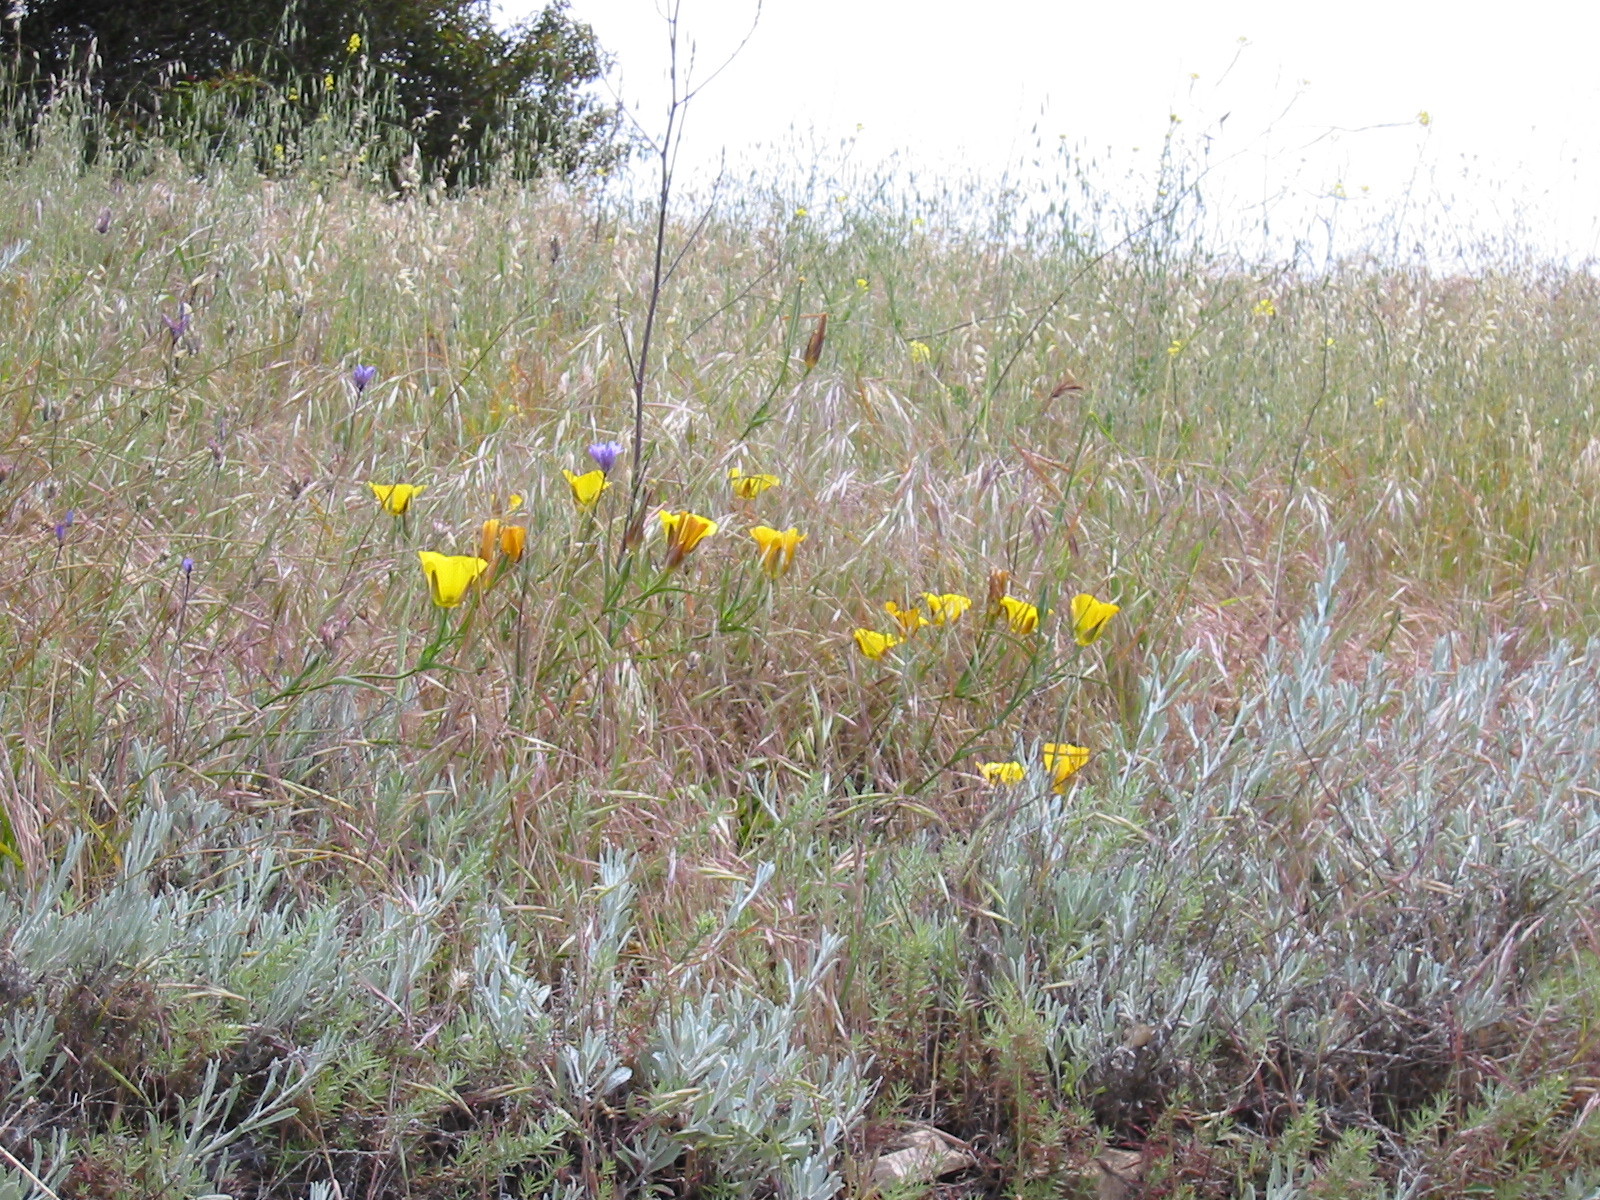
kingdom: Plantae
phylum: Tracheophyta
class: Liliopsida
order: Liliales
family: Liliaceae
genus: Calochortus
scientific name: Calochortus clavatus
